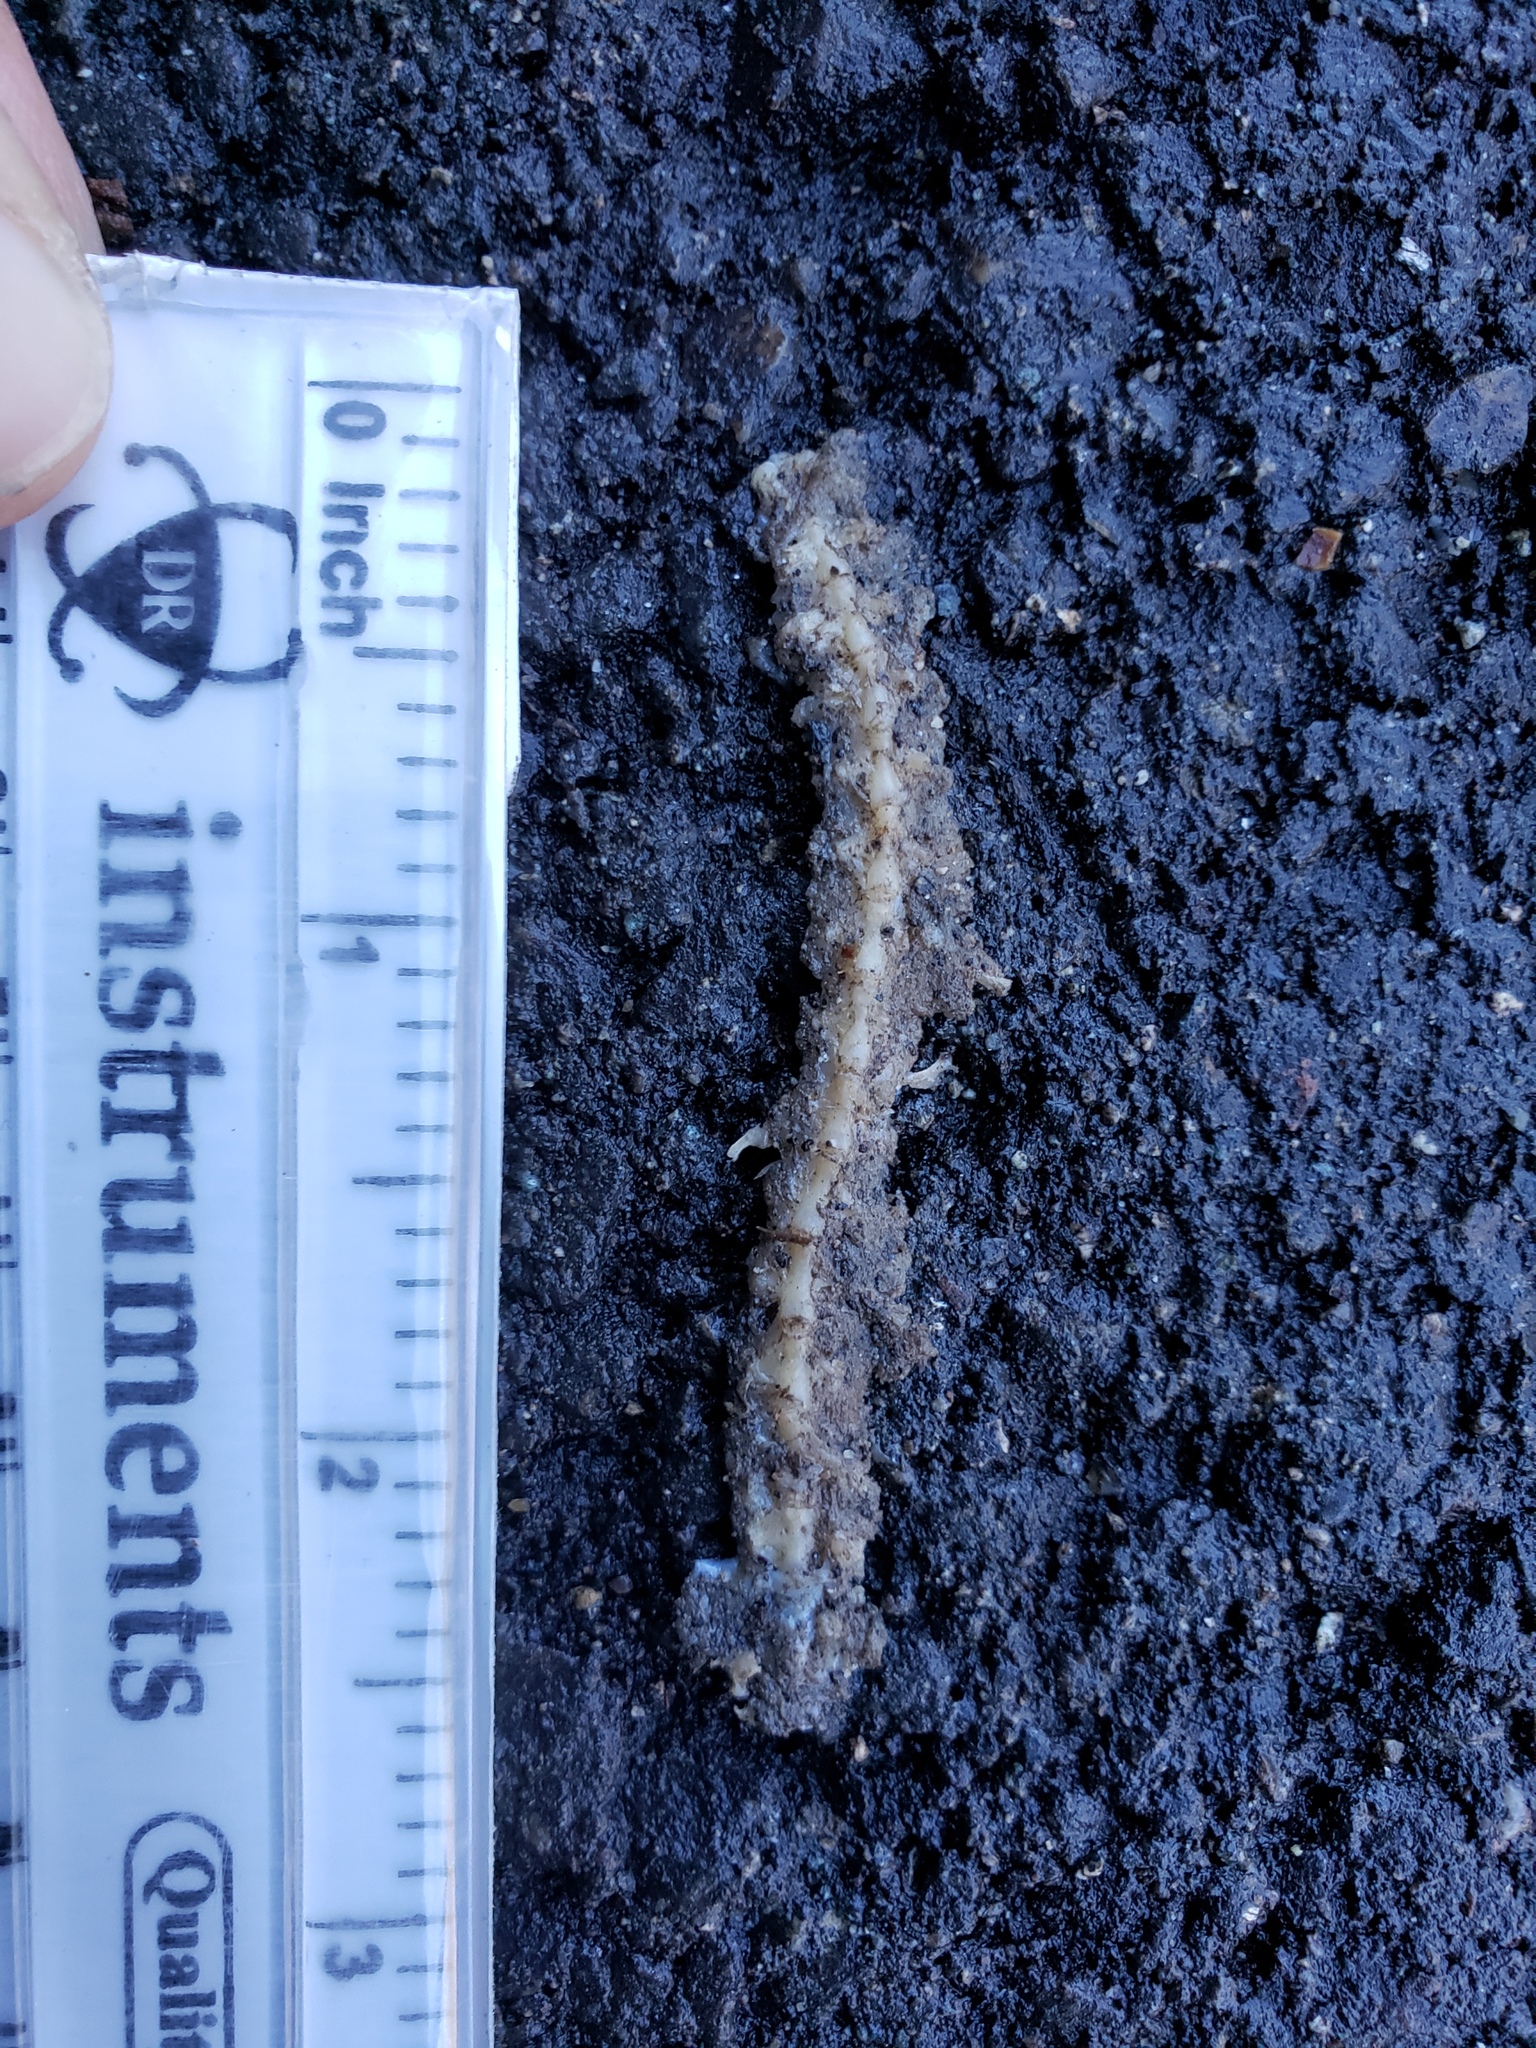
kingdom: Animalia
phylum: Chordata
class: Amphibia
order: Caudata
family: Salamandridae
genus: Taricha
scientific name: Taricha
